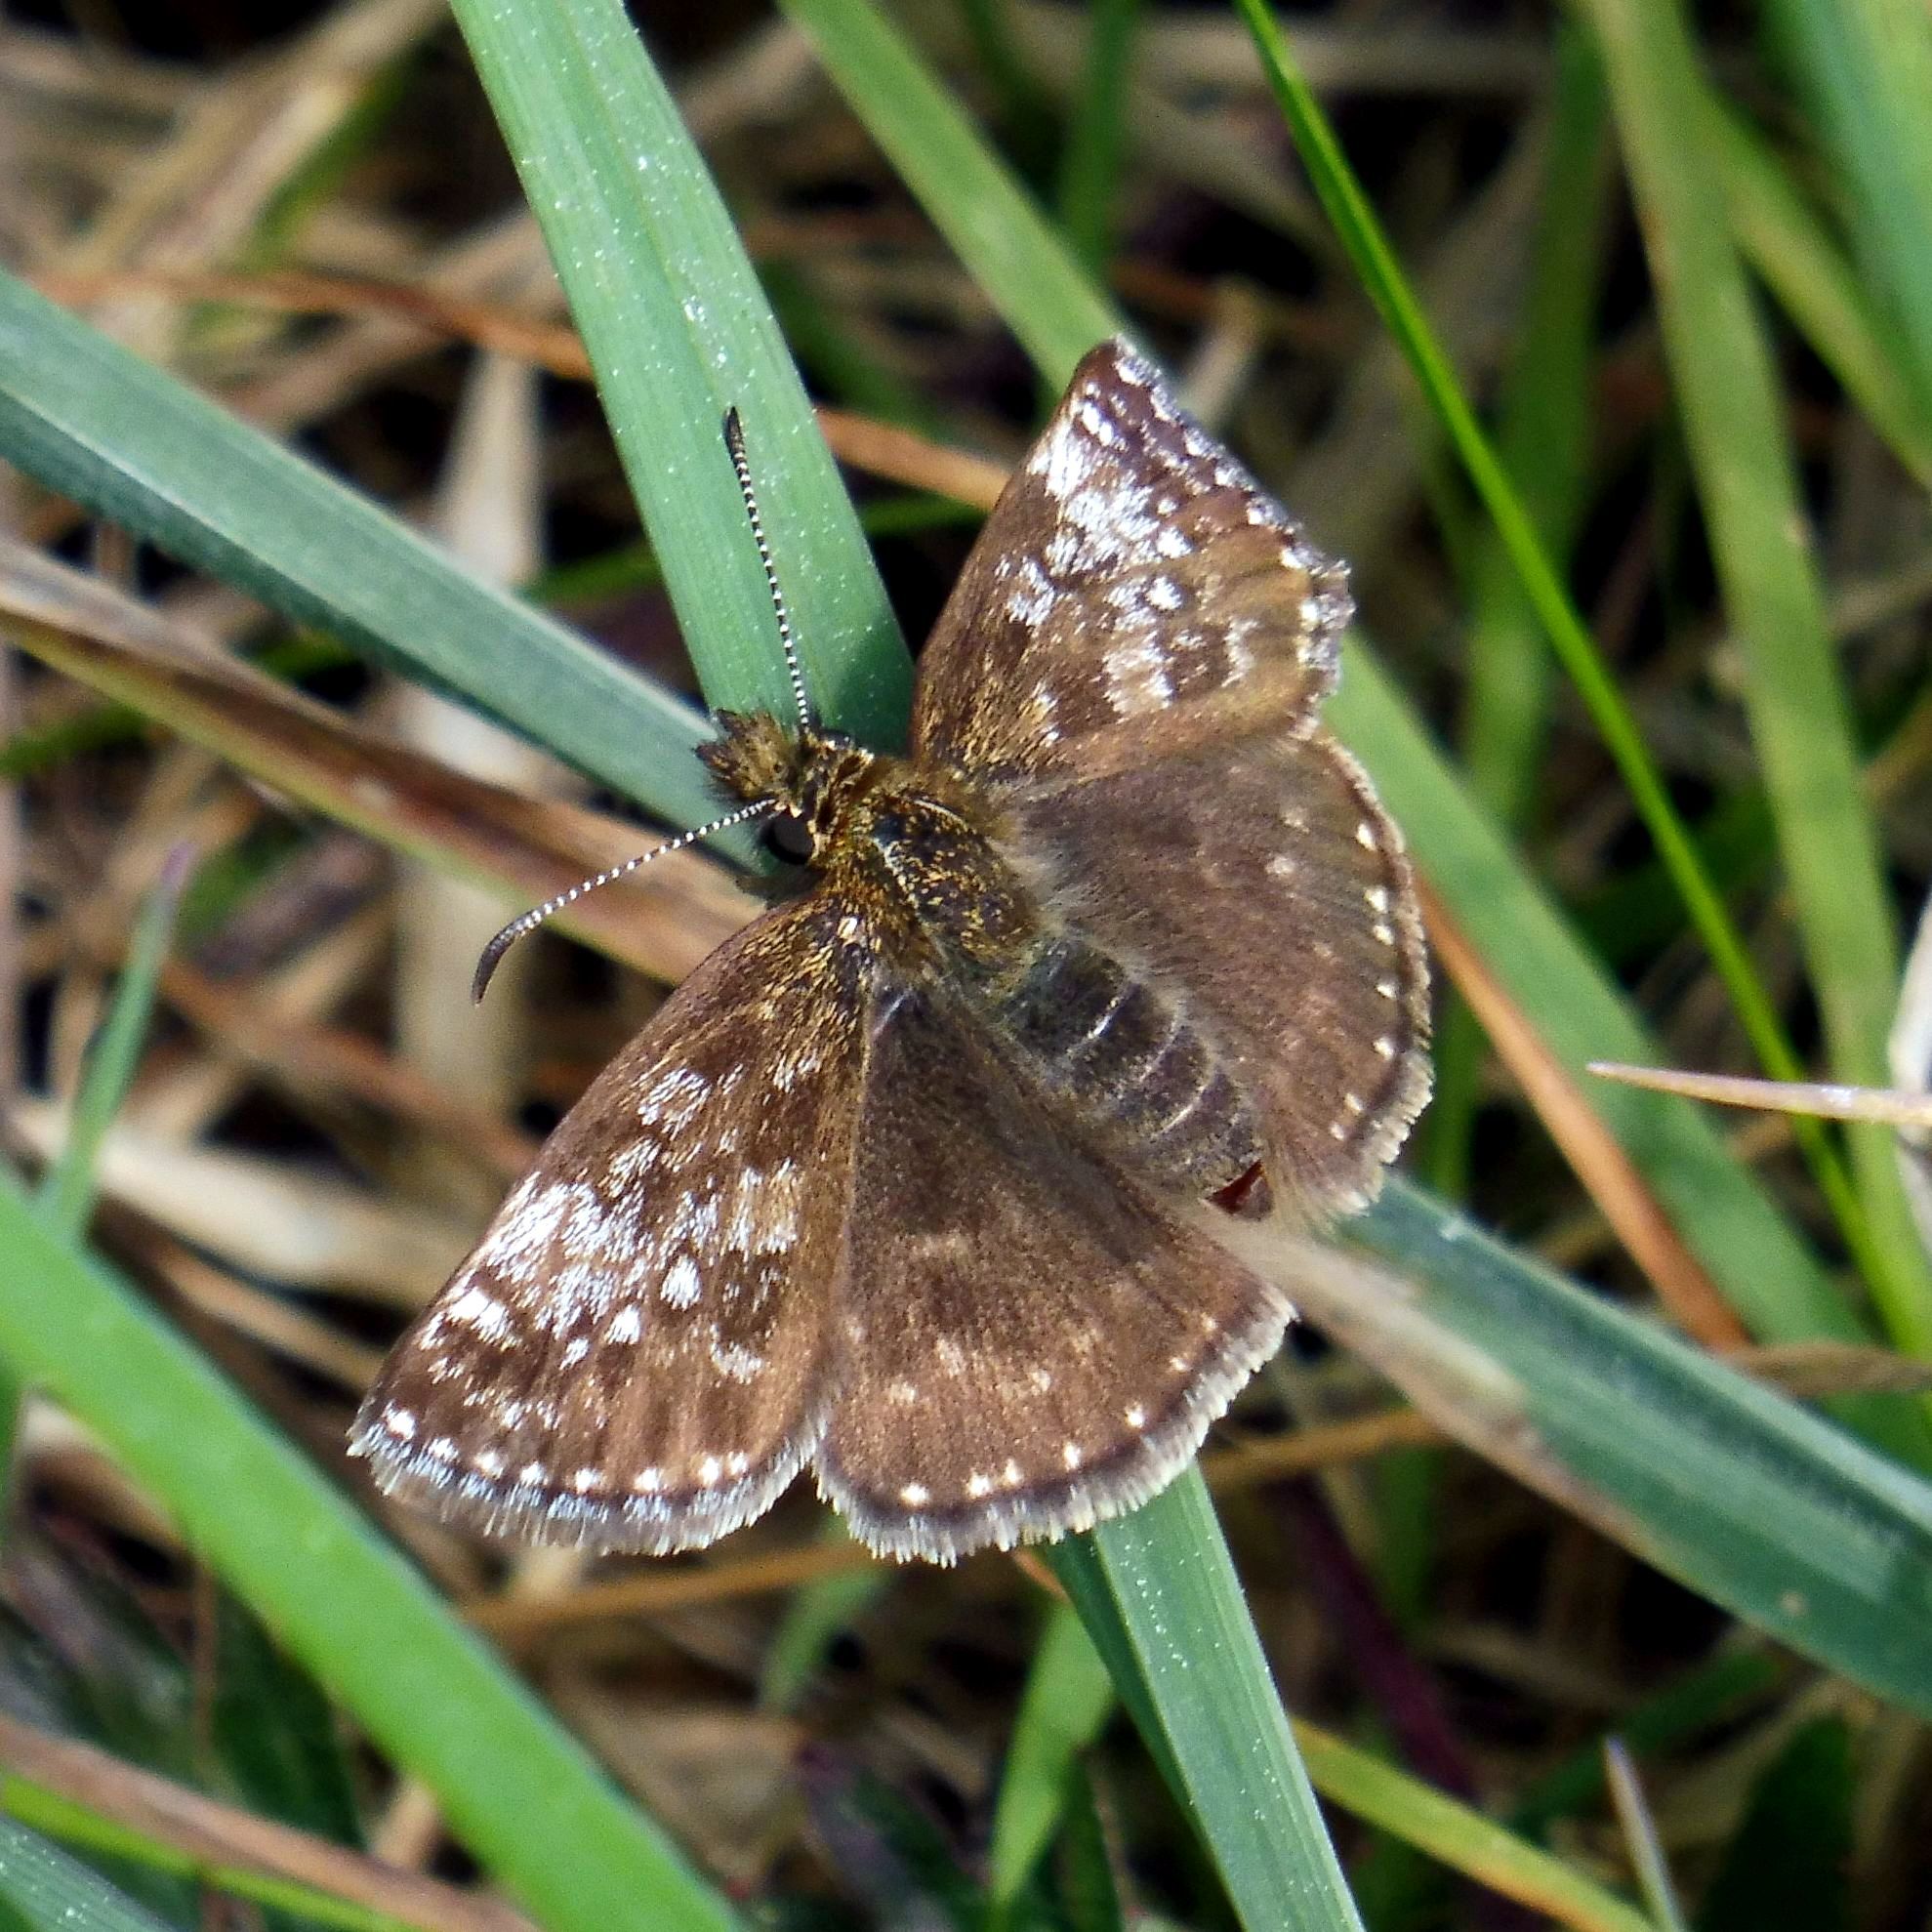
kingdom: Animalia
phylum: Arthropoda
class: Insecta
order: Lepidoptera
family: Hesperiidae
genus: Erynnis
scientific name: Erynnis tages
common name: Dingy skipper
